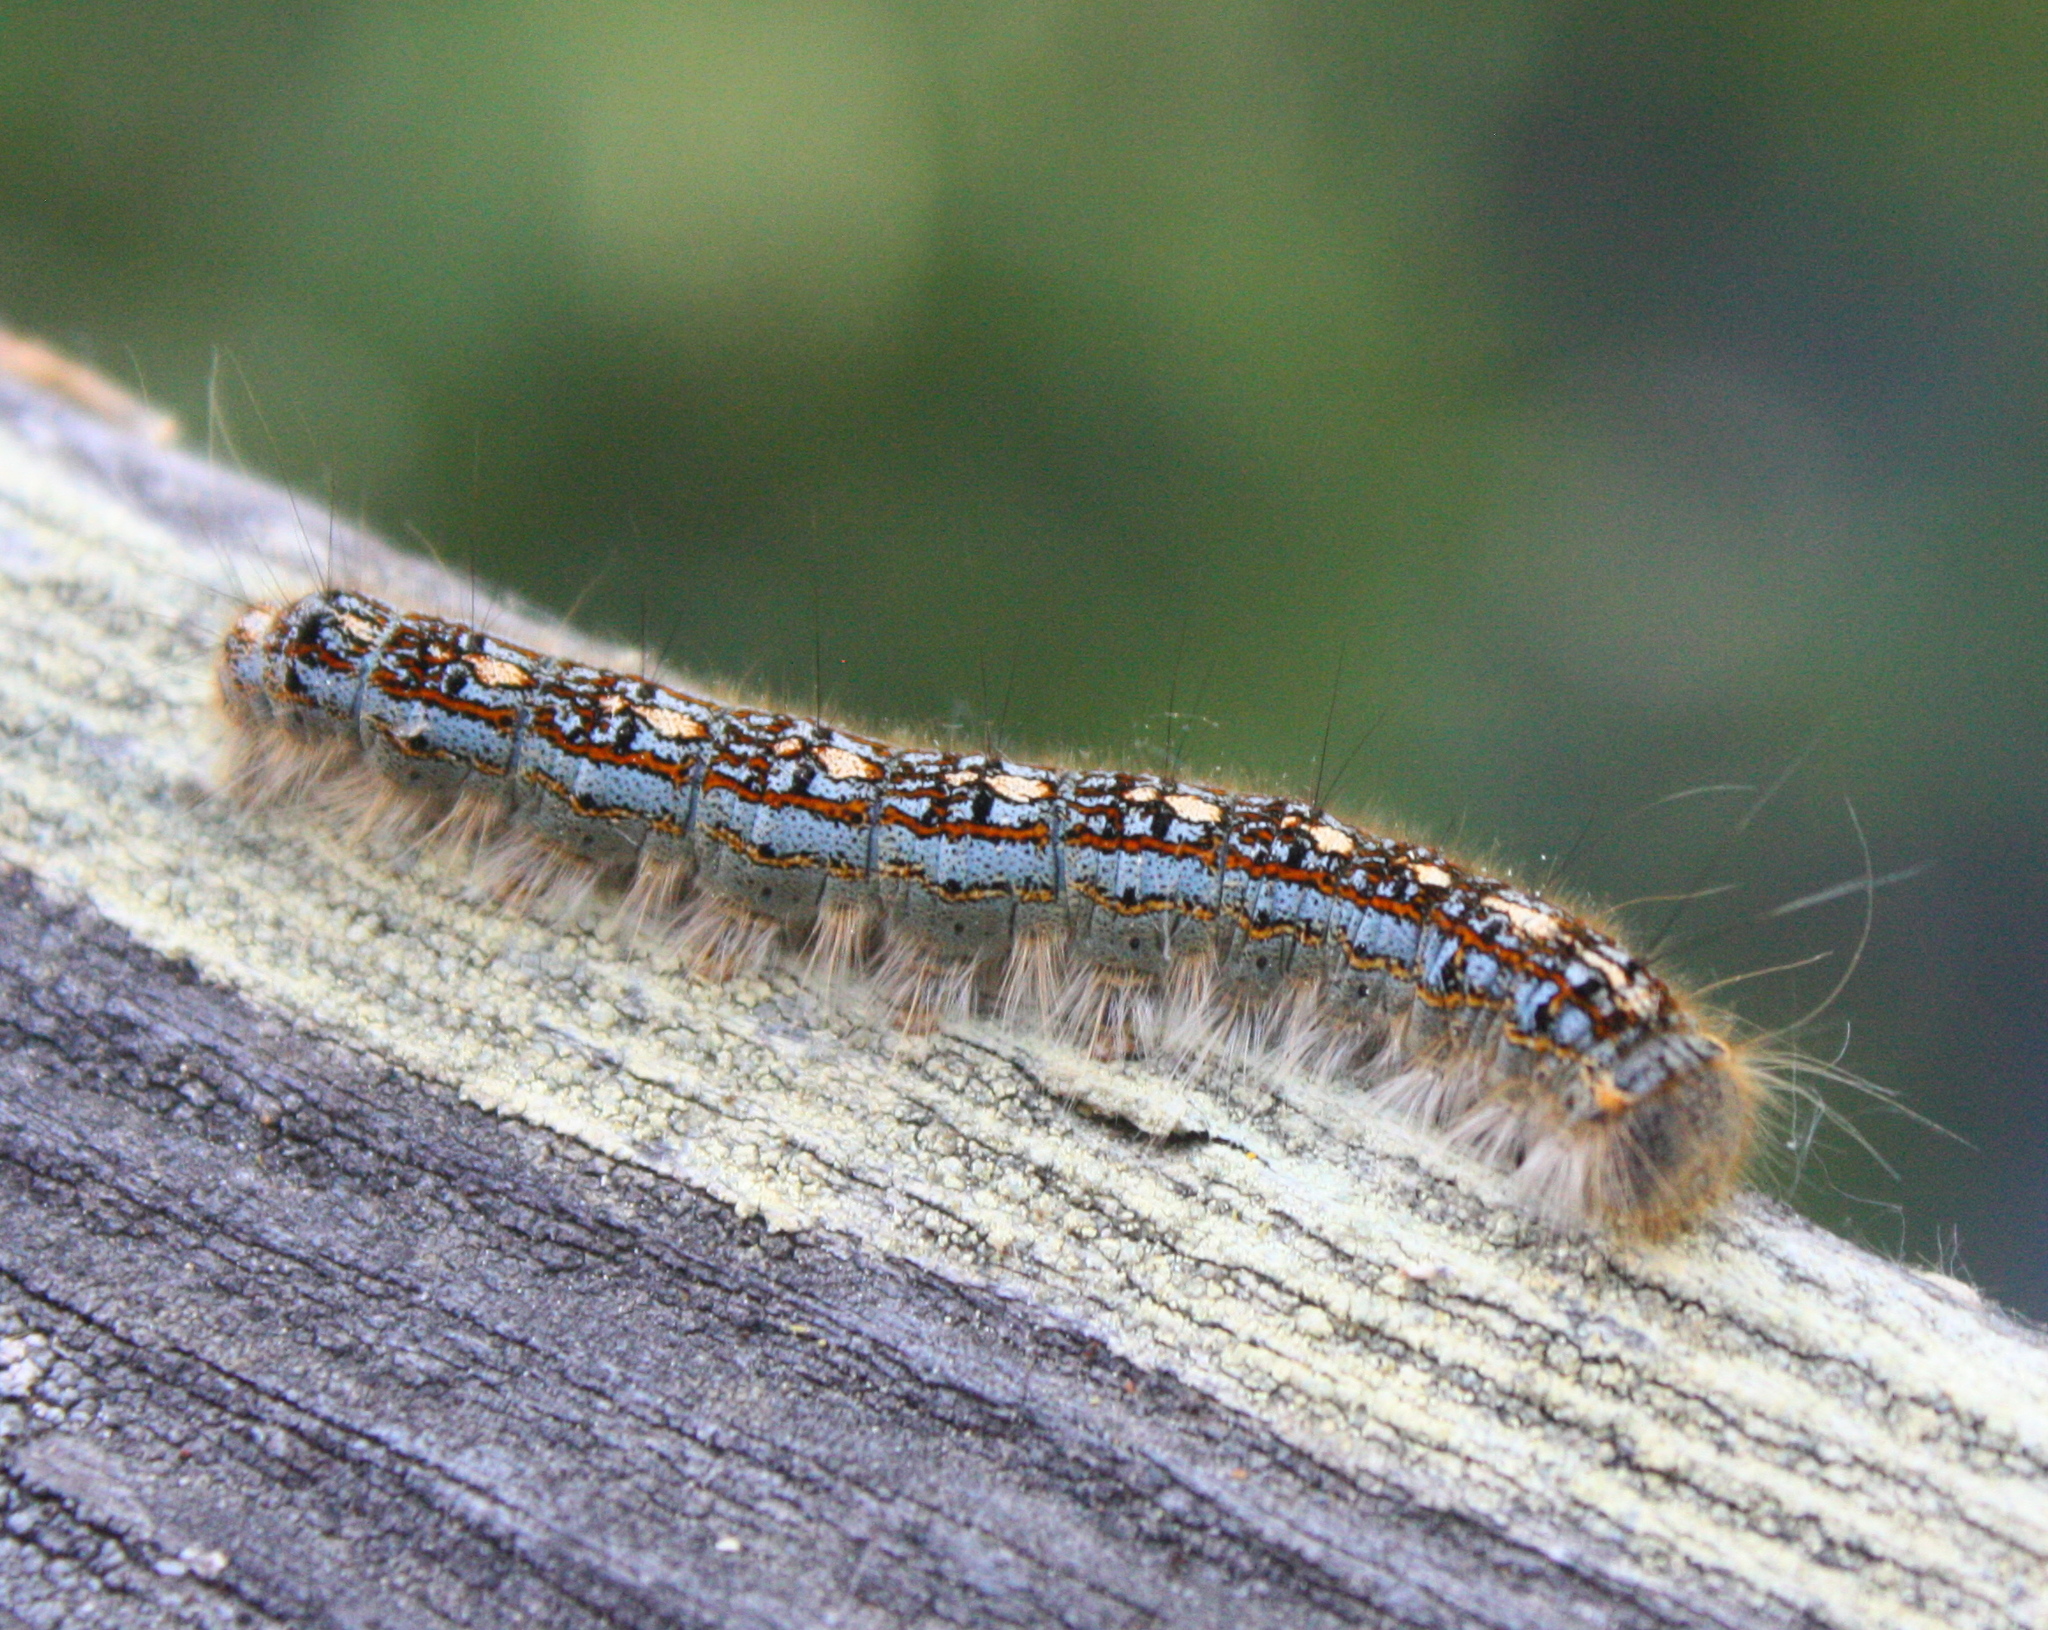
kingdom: Animalia
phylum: Arthropoda
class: Insecta
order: Lepidoptera
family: Lasiocampidae
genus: Malacosoma
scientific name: Malacosoma disstria
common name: Forest tent caterpillar
